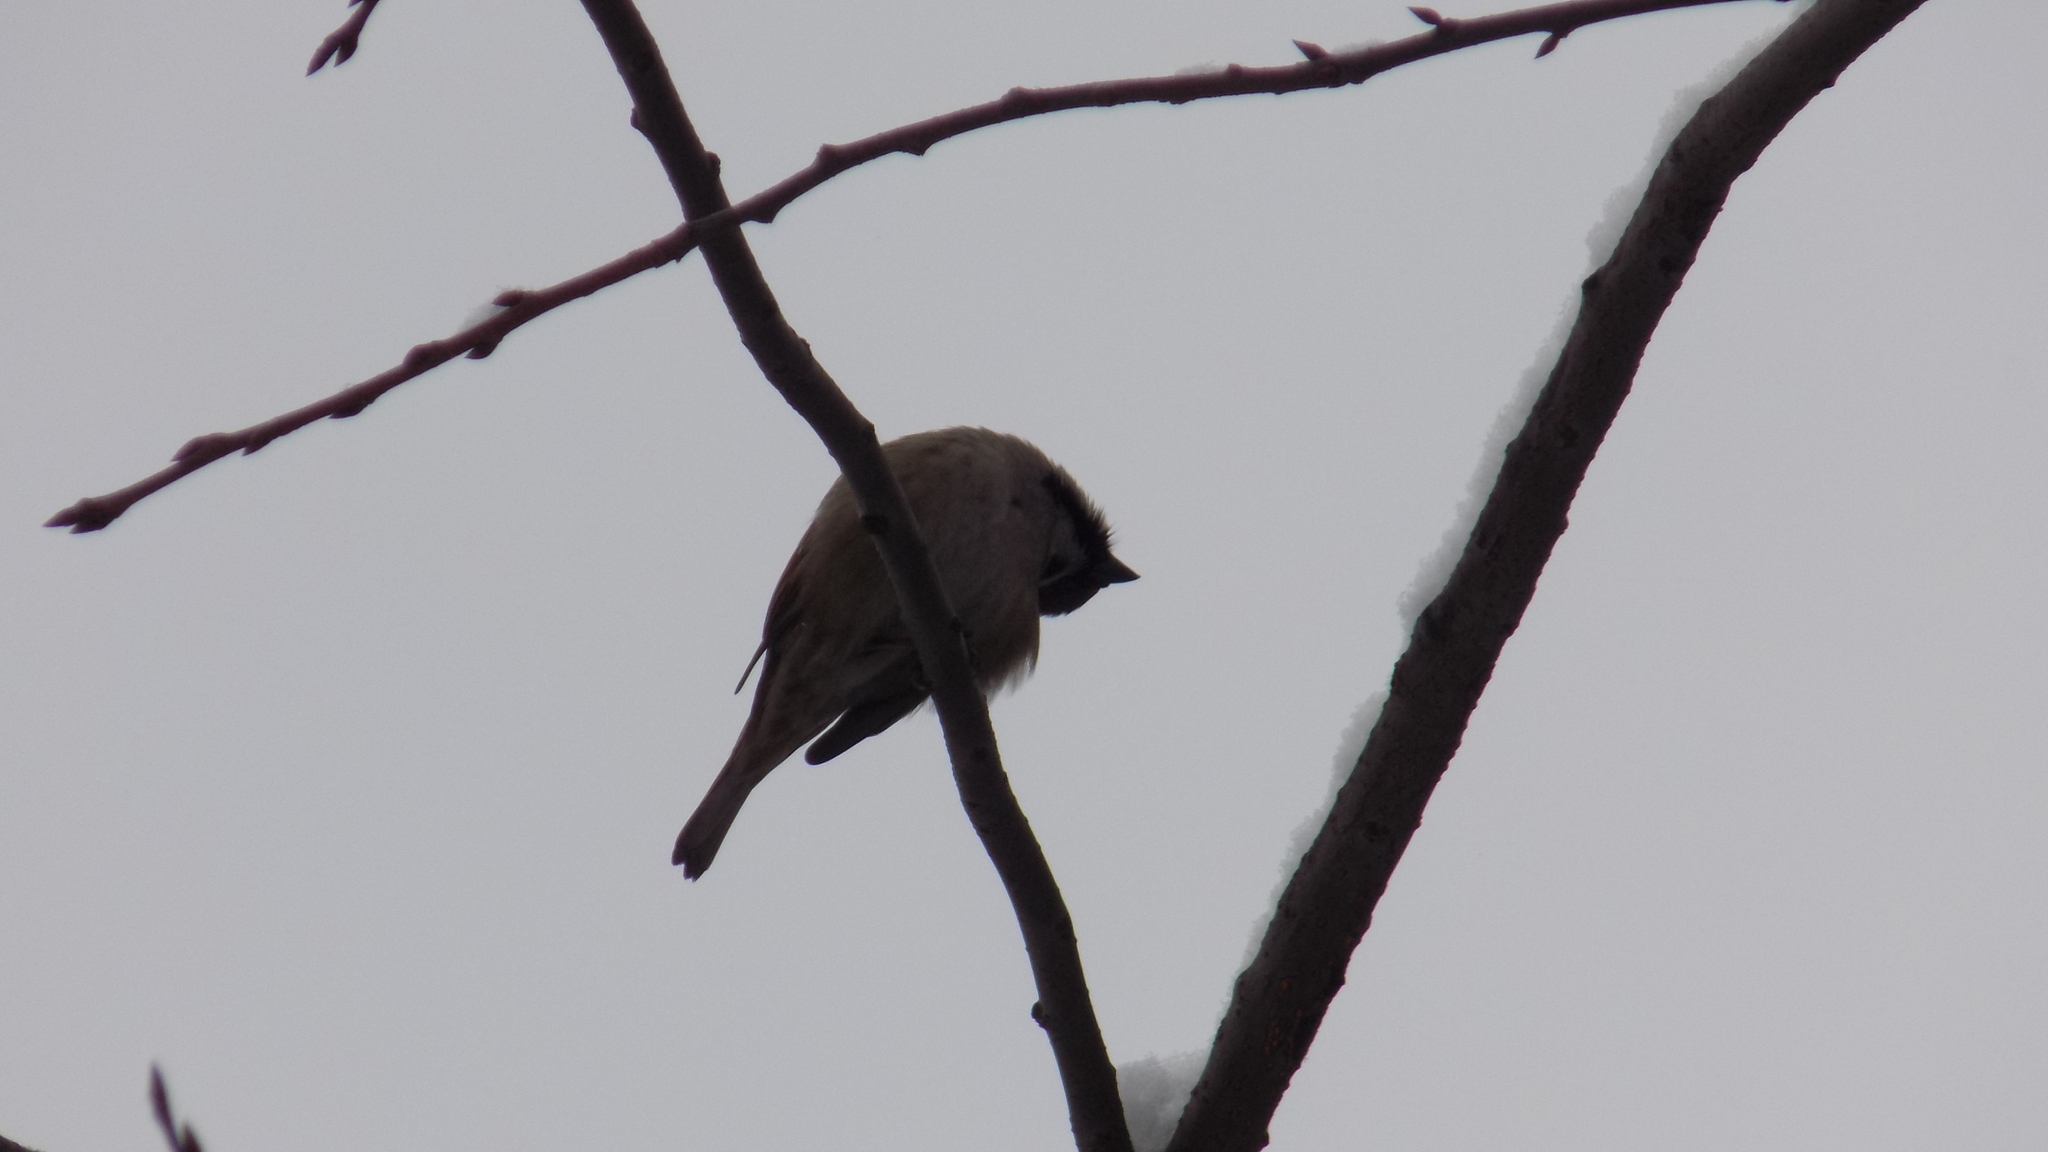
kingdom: Animalia
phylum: Chordata
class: Aves
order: Passeriformes
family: Passeridae
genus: Passer
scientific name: Passer montanus
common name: Eurasian tree sparrow
